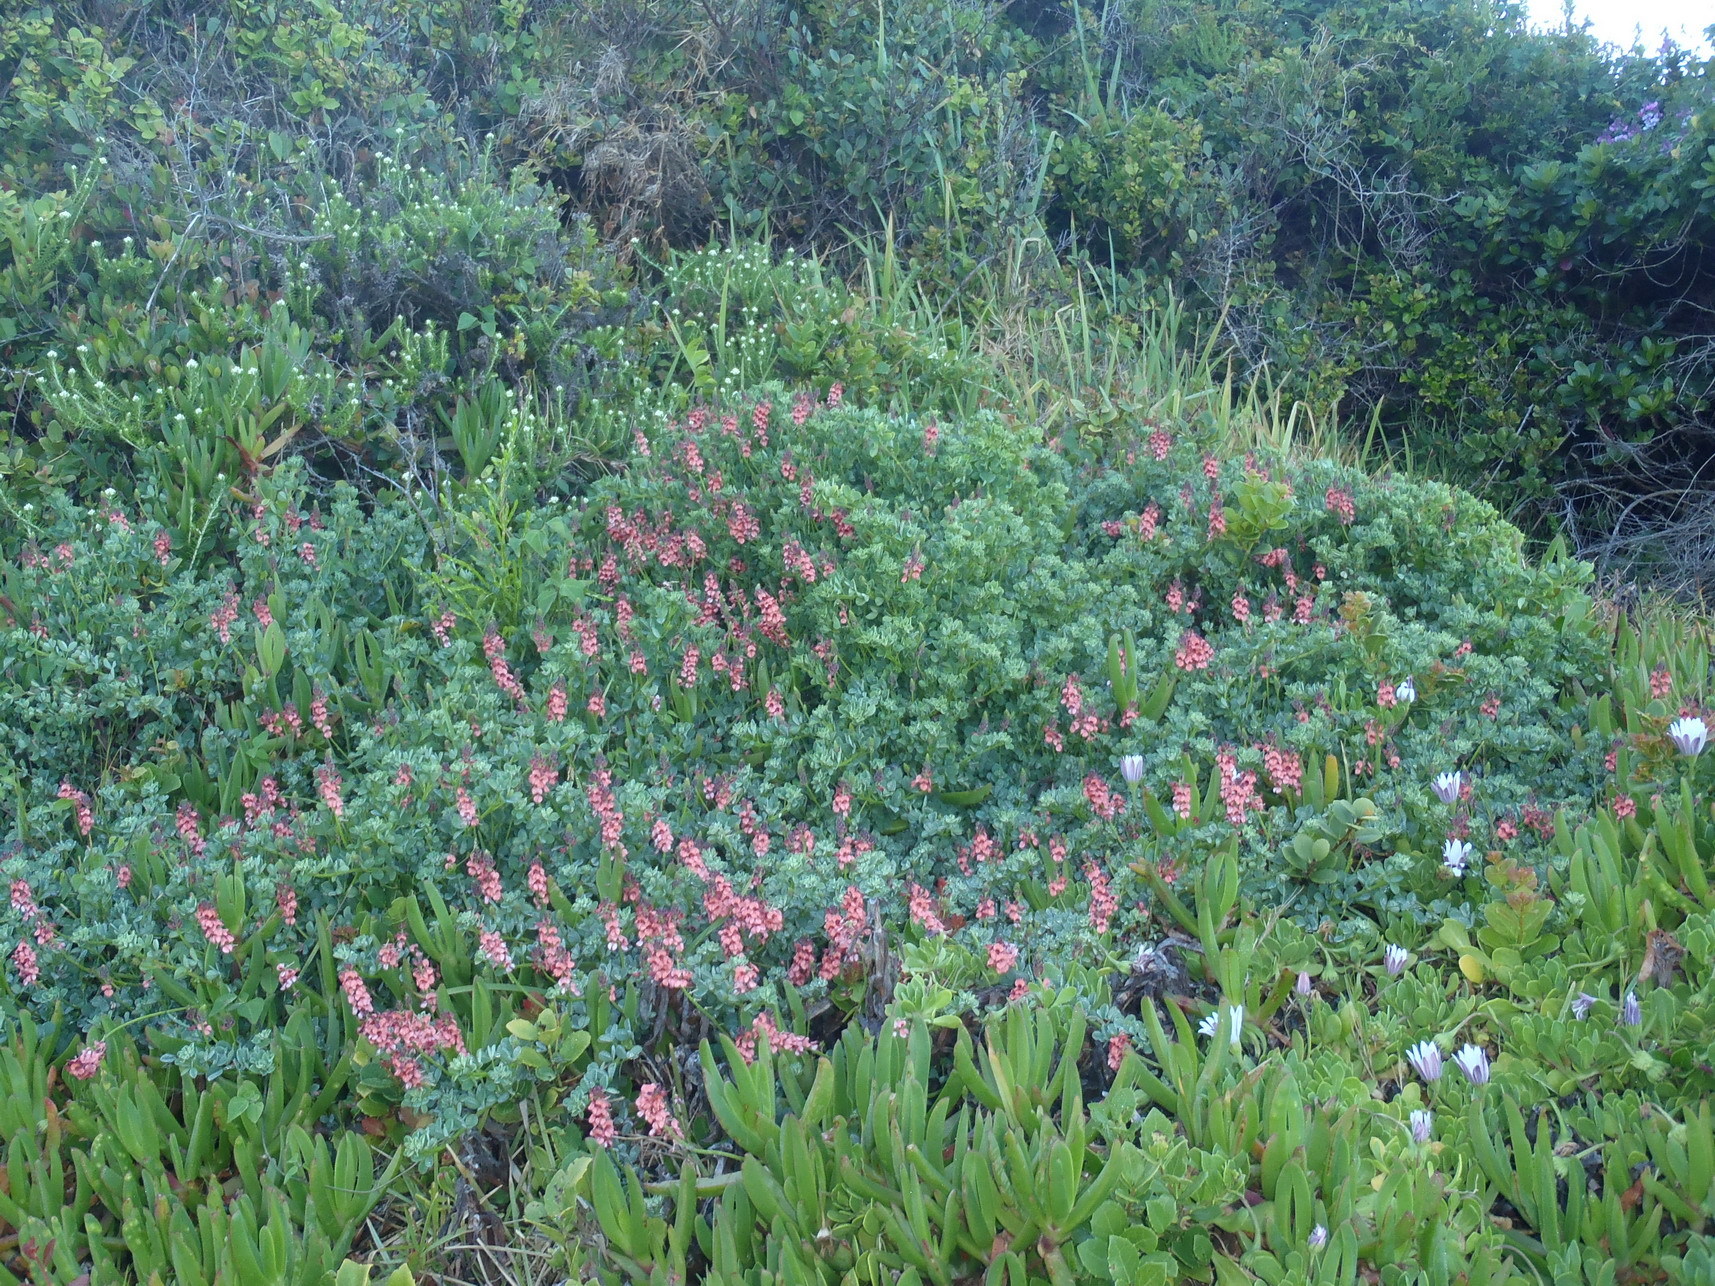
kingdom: Plantae
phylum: Tracheophyta
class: Magnoliopsida
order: Fabales
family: Fabaceae
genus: Indigofera
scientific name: Indigofera porrecta
